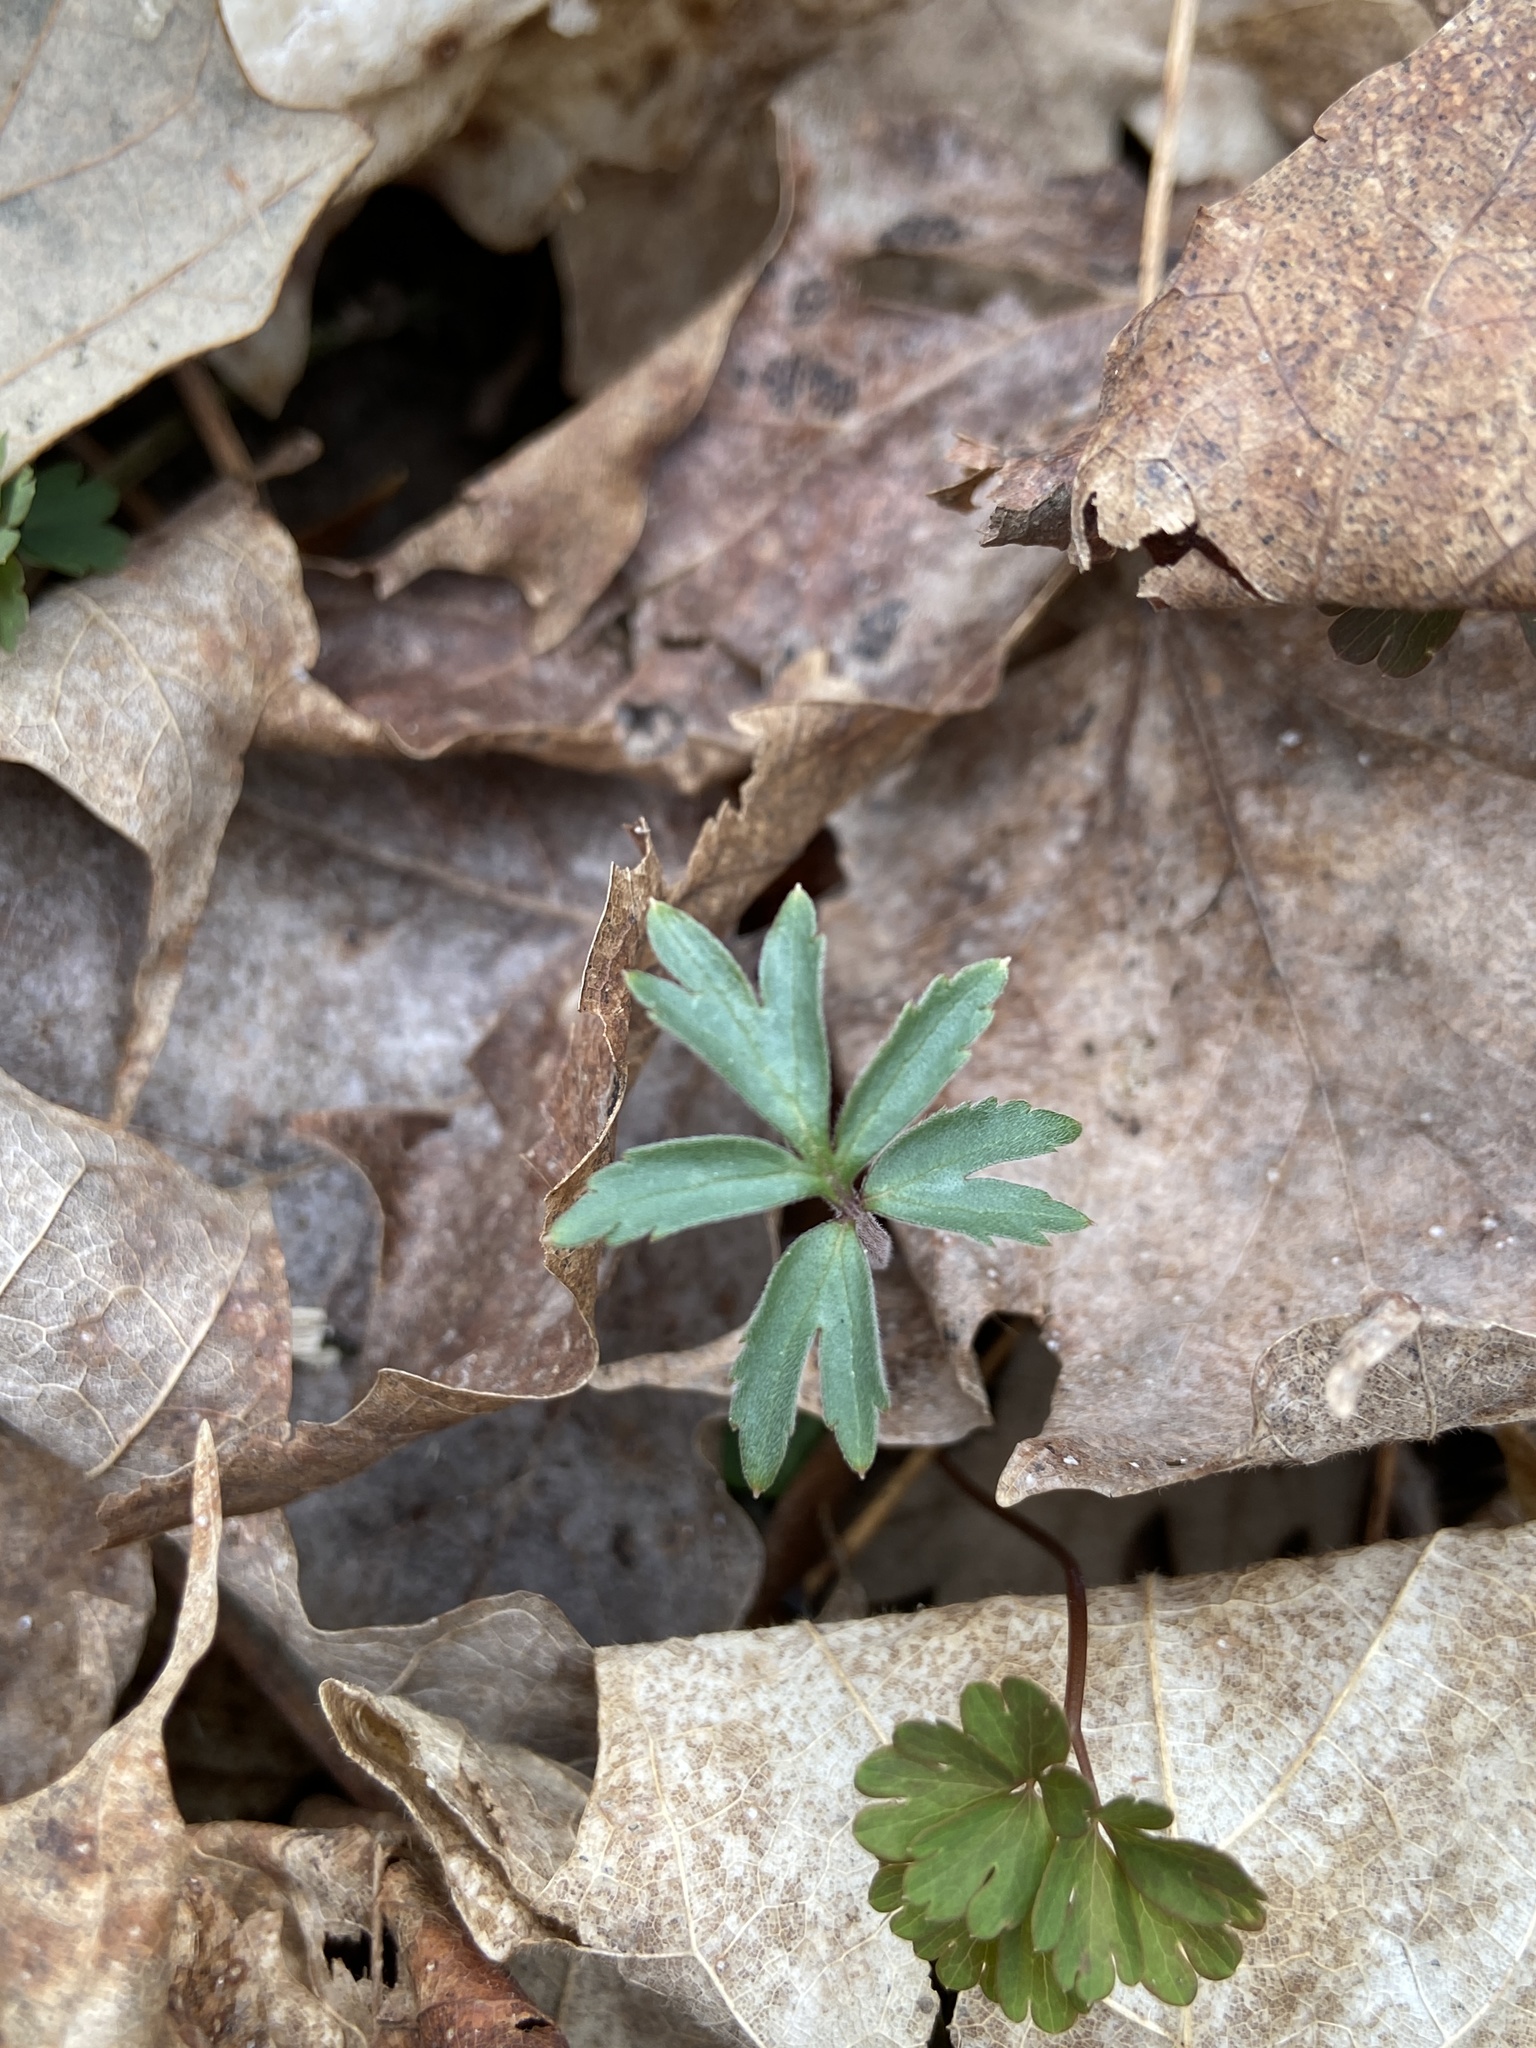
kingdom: Plantae
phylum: Tracheophyta
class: Magnoliopsida
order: Boraginales
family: Hydrophyllaceae
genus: Hydrophyllum
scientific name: Hydrophyllum virginianum
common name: Virginia waterleaf
